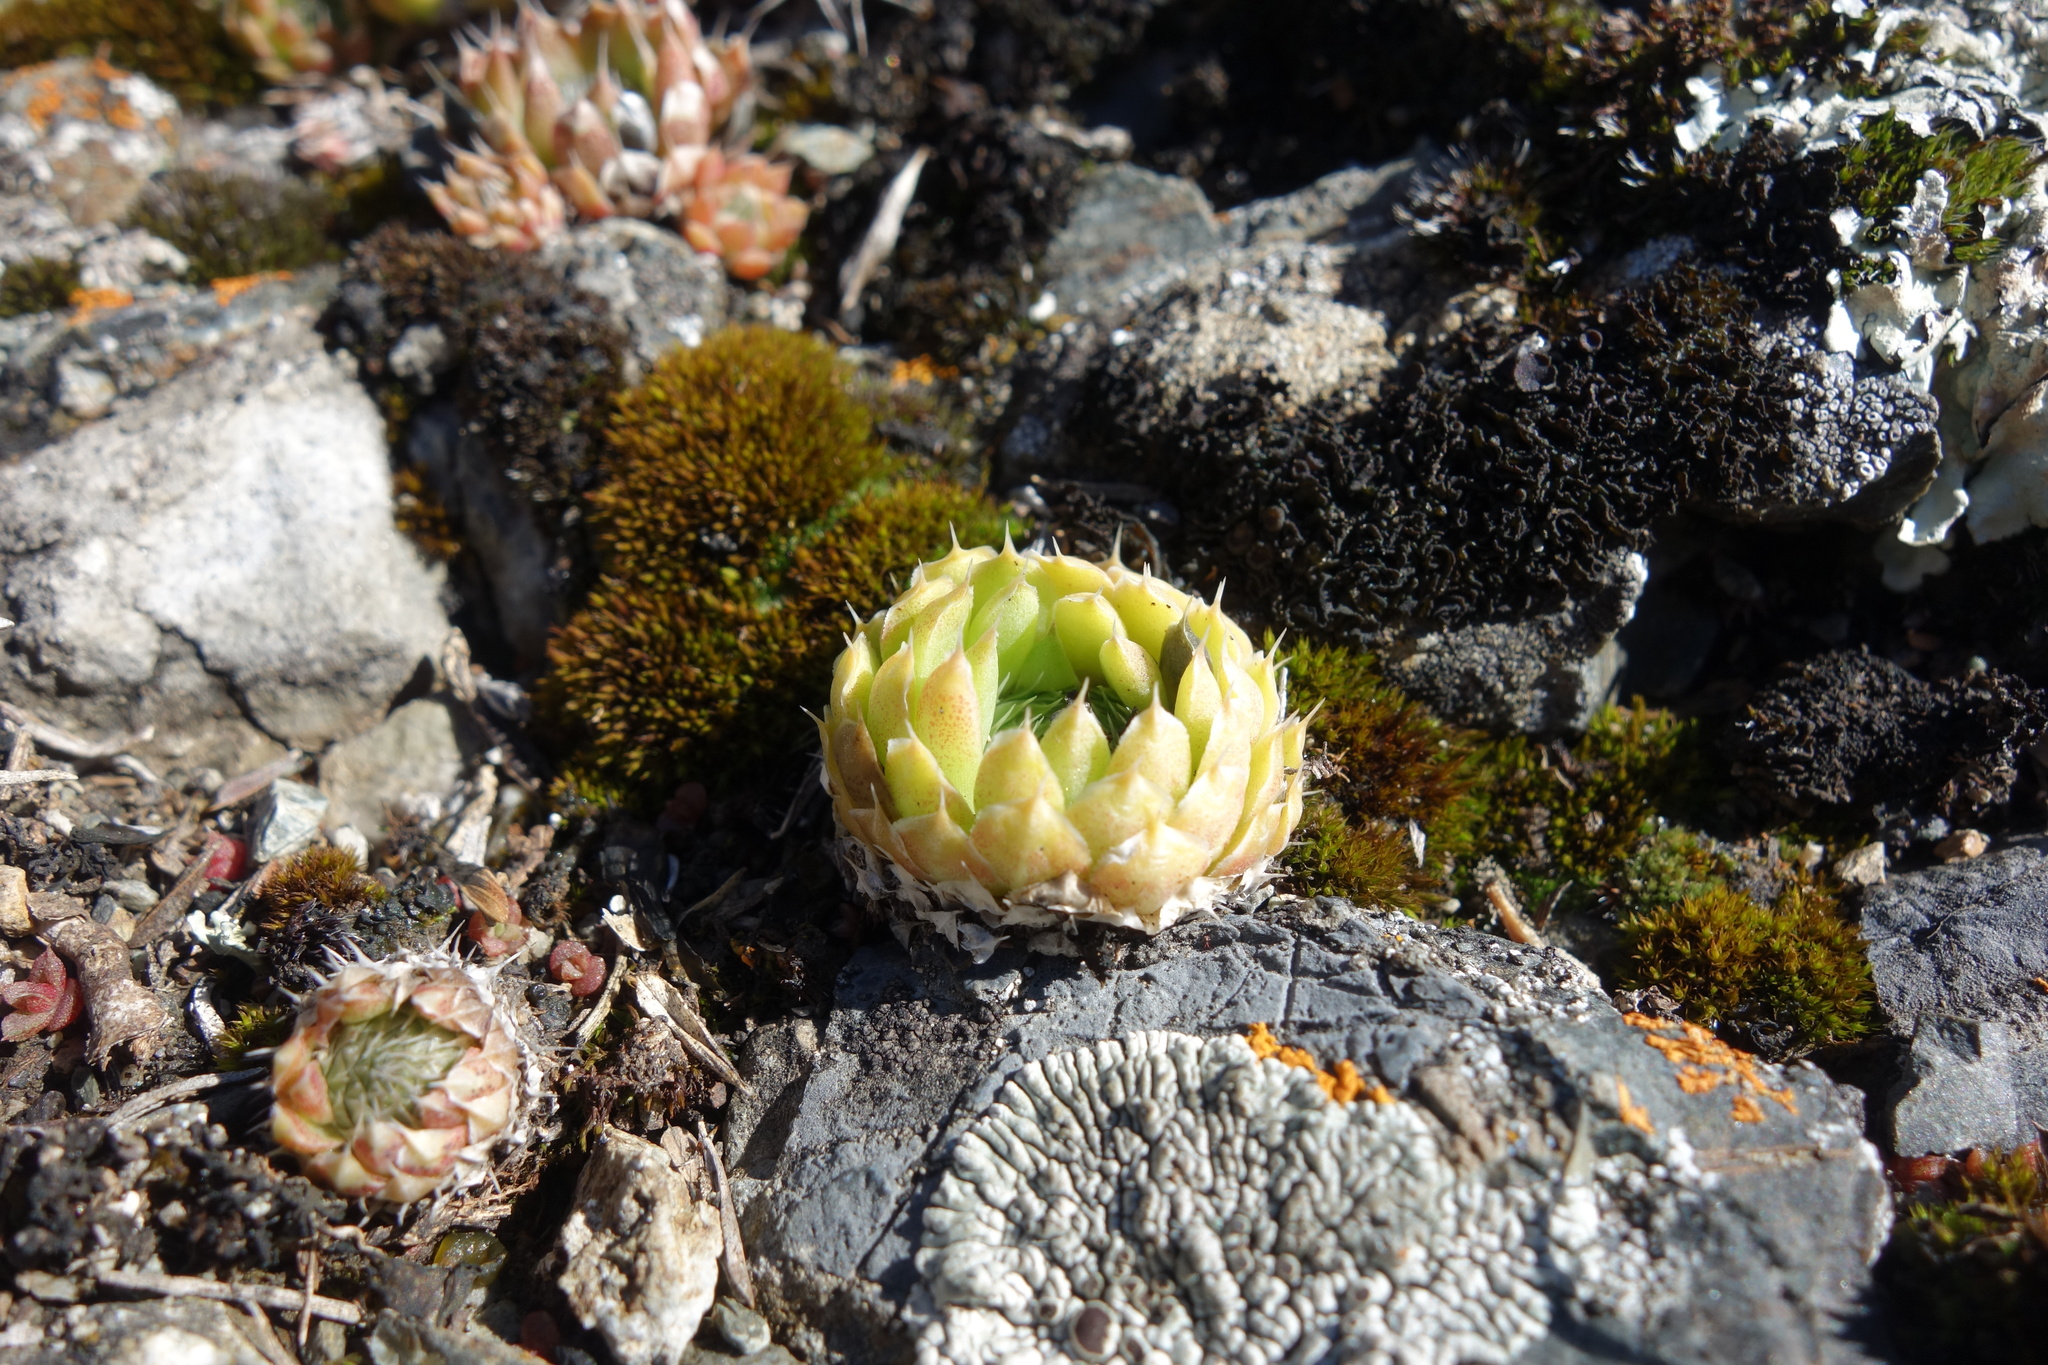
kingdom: Plantae
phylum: Tracheophyta
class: Magnoliopsida
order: Saxifragales
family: Crassulaceae
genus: Orostachys
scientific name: Orostachys spinosa
